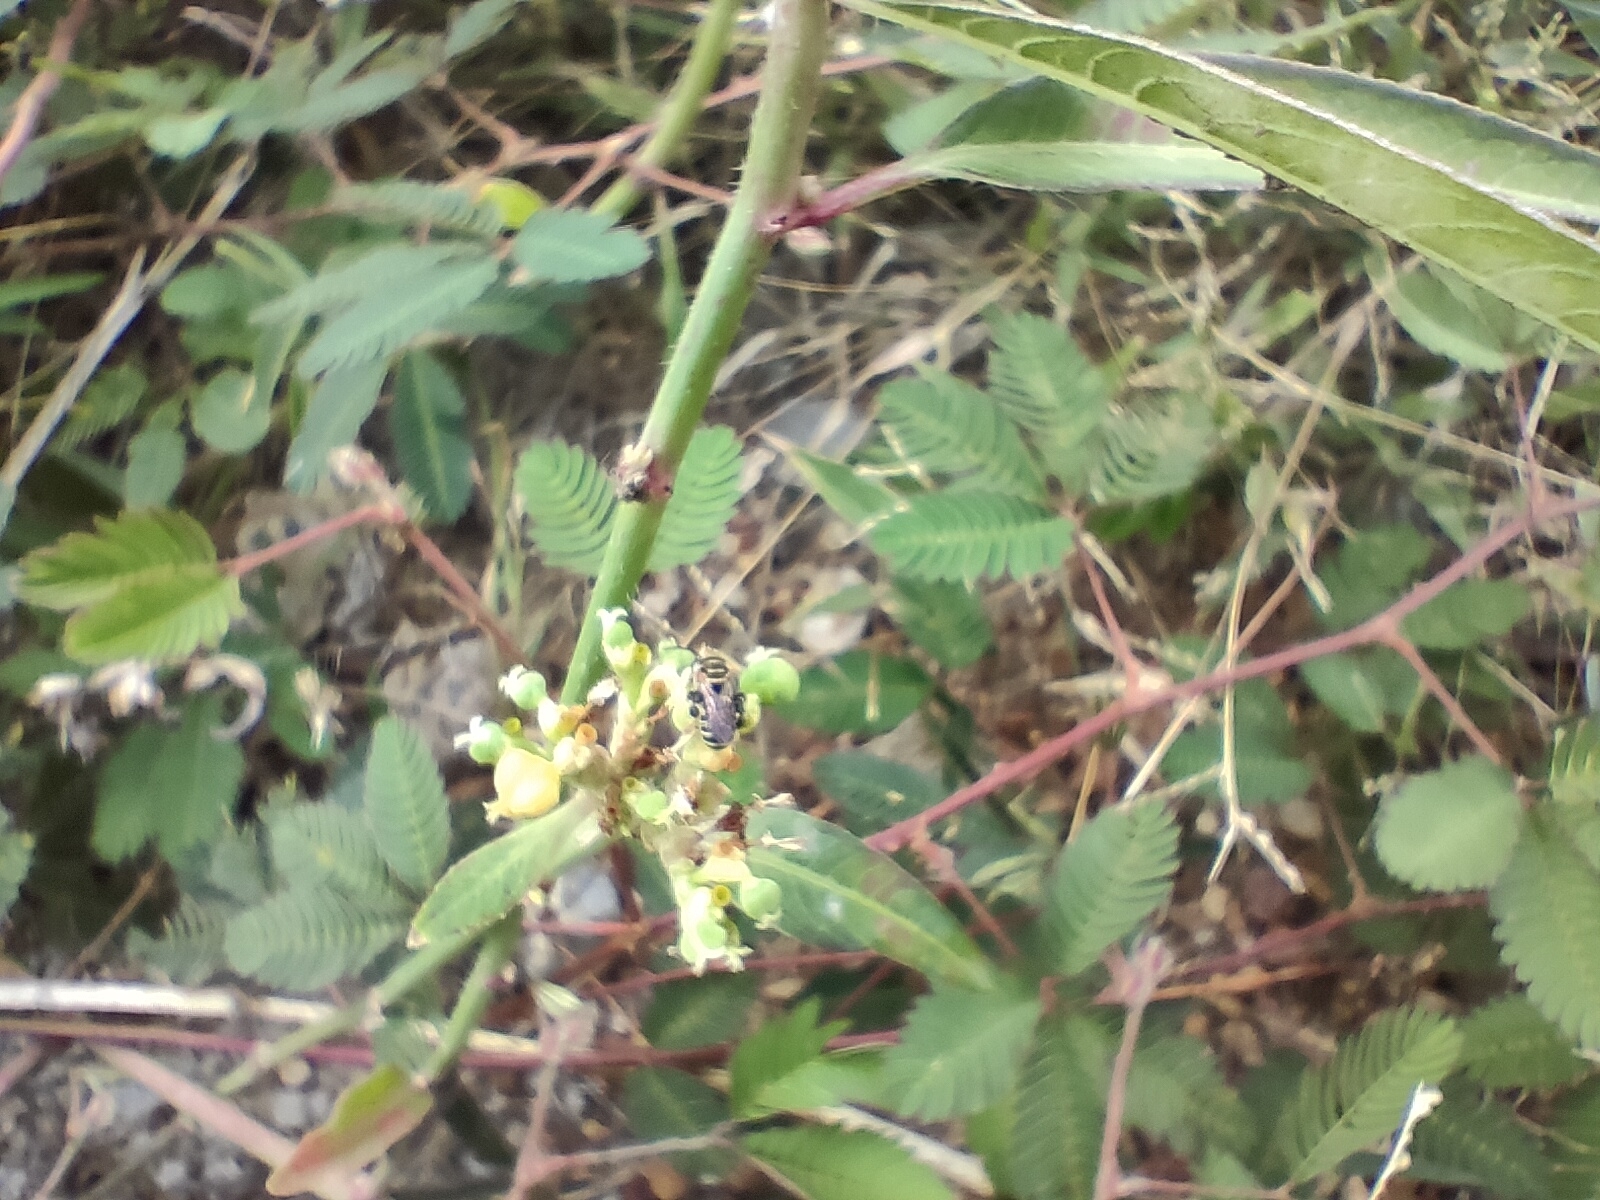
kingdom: Animalia
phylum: Arthropoda
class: Insecta
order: Hymenoptera
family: Halictidae
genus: Pseudapis
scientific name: Pseudapis siamensis
